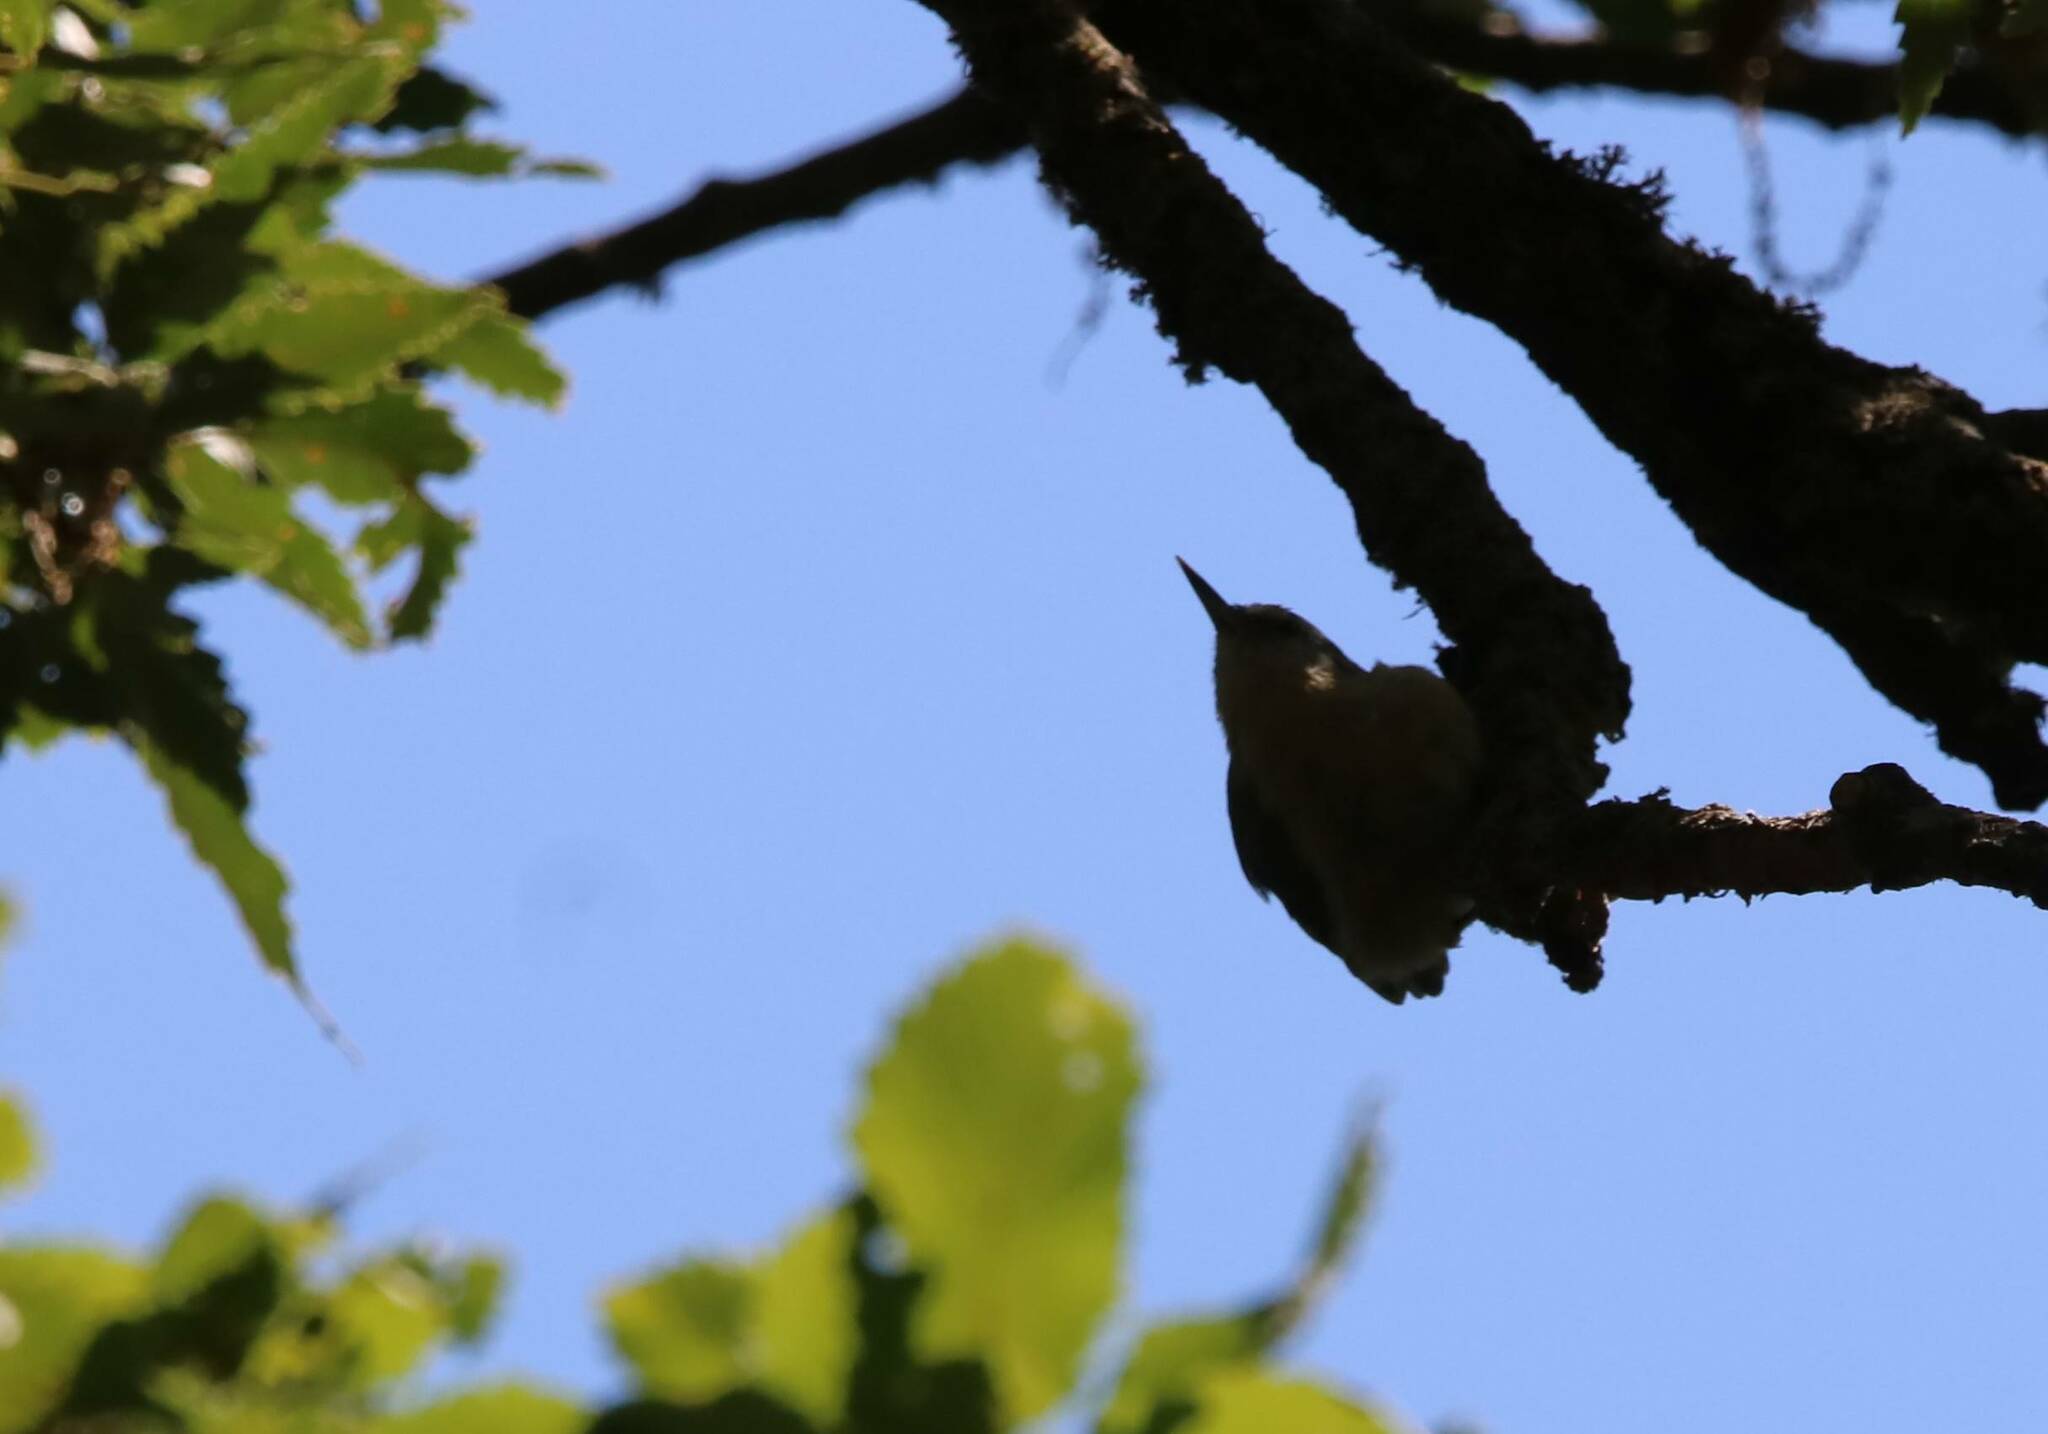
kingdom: Animalia
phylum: Chordata
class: Aves
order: Passeriformes
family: Sittidae
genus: Sitta
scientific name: Sitta ledanti
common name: Algerian nuthatch
